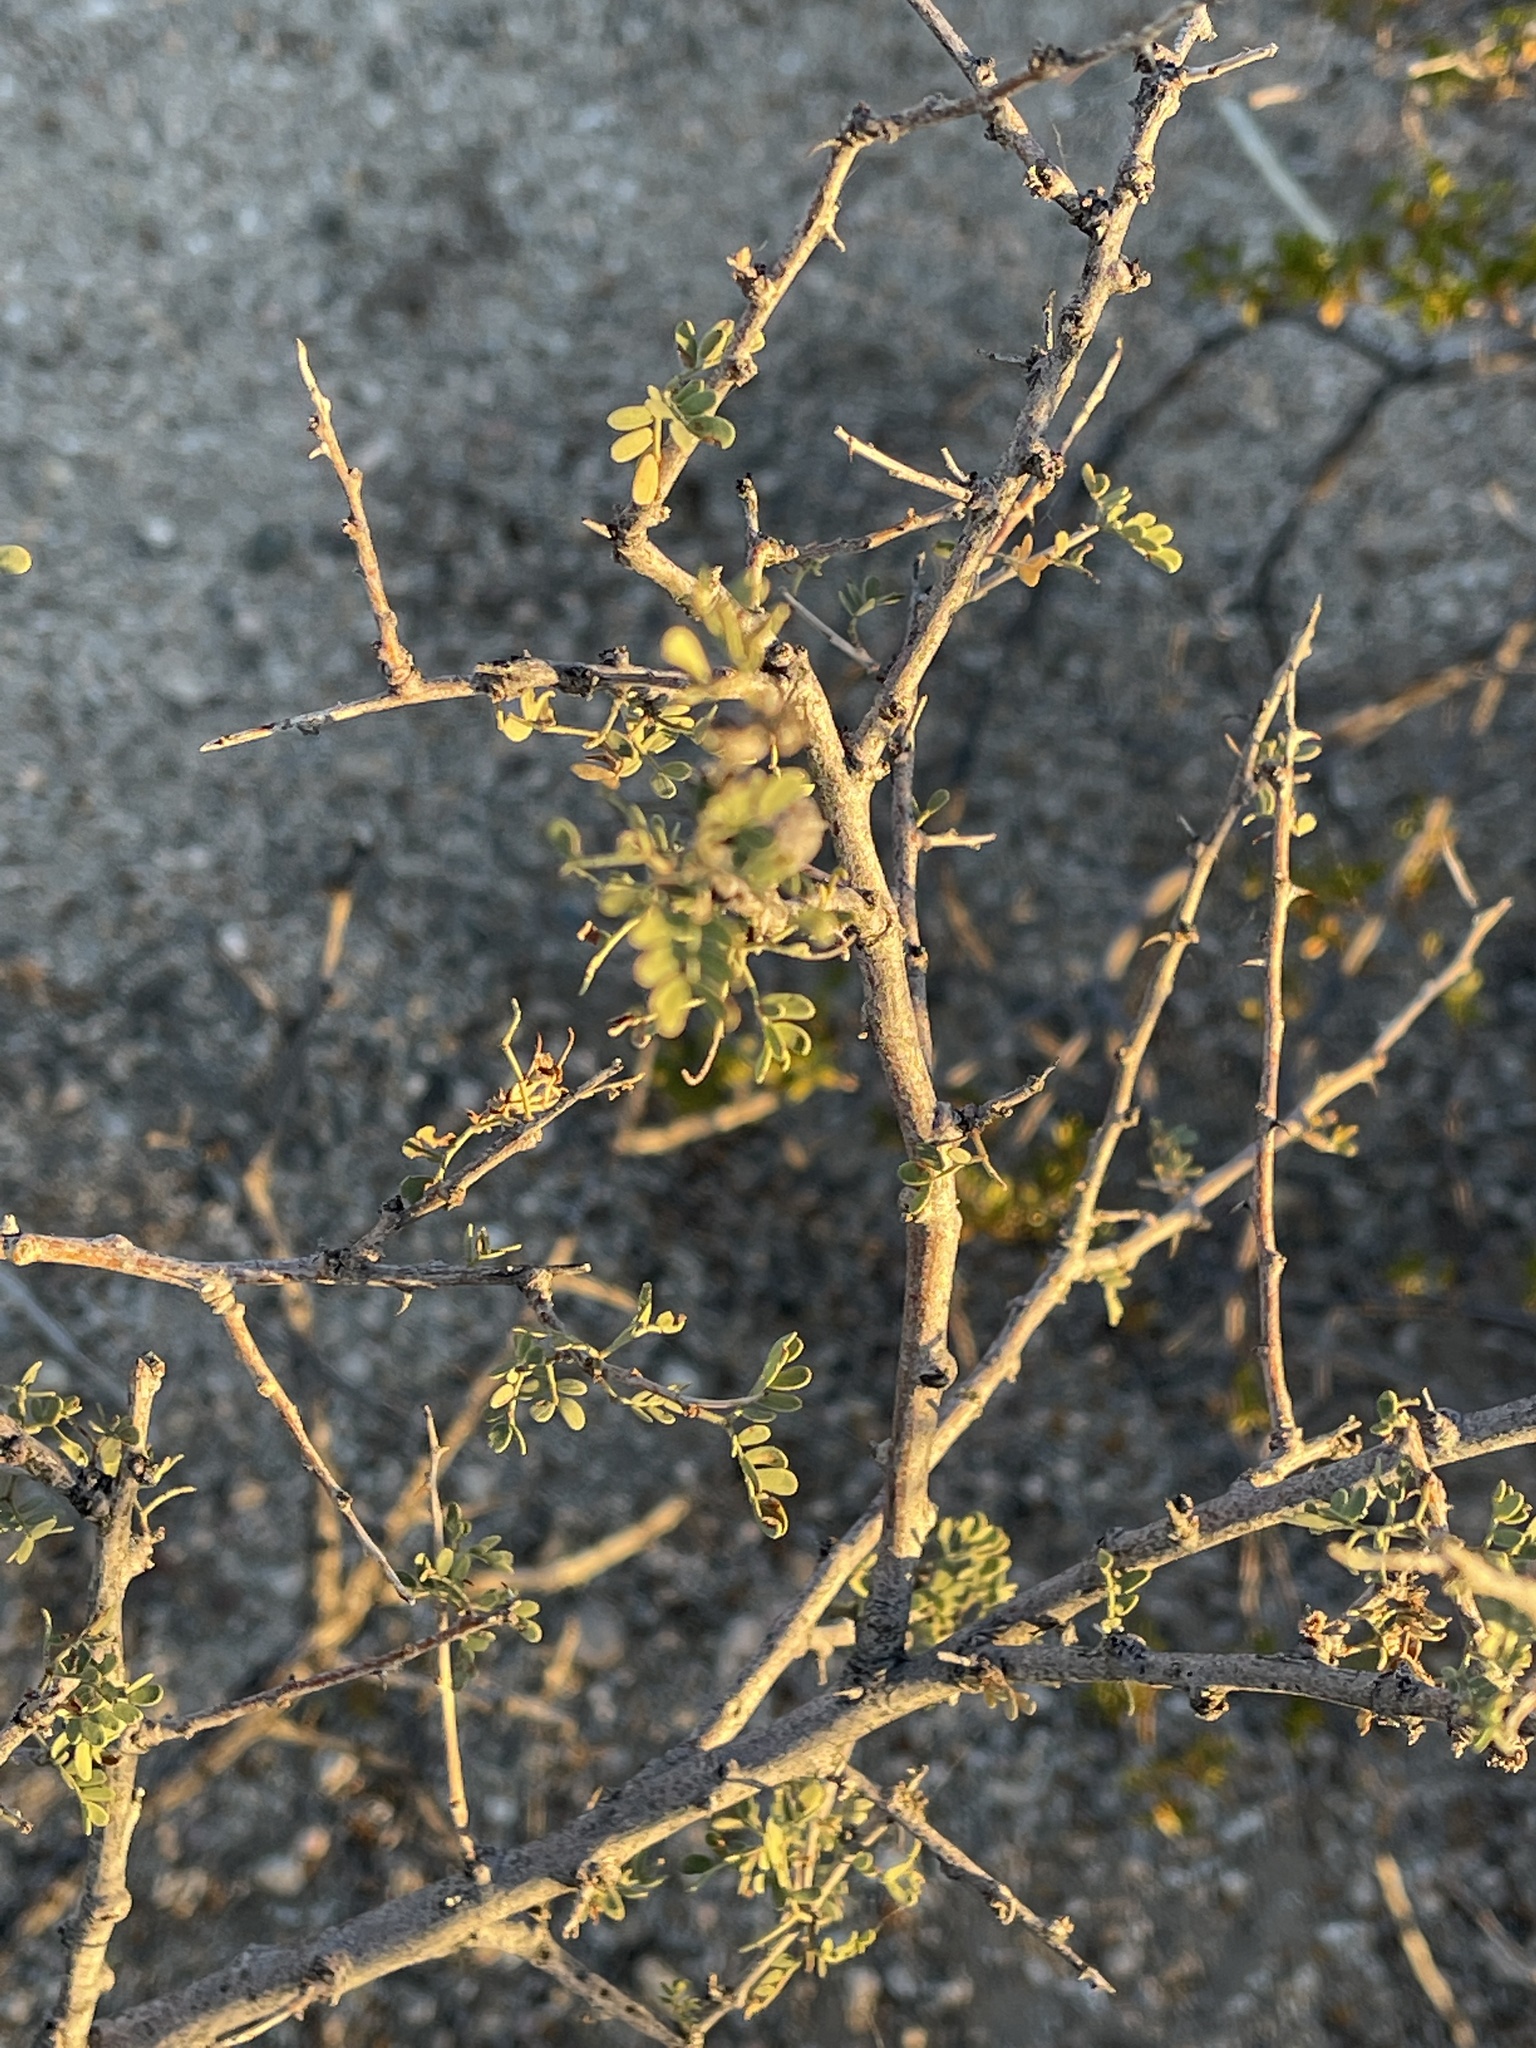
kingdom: Plantae
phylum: Tracheophyta
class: Magnoliopsida
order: Fabales
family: Fabaceae
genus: Senegalia
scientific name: Senegalia greggii
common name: Texas-mimosa
